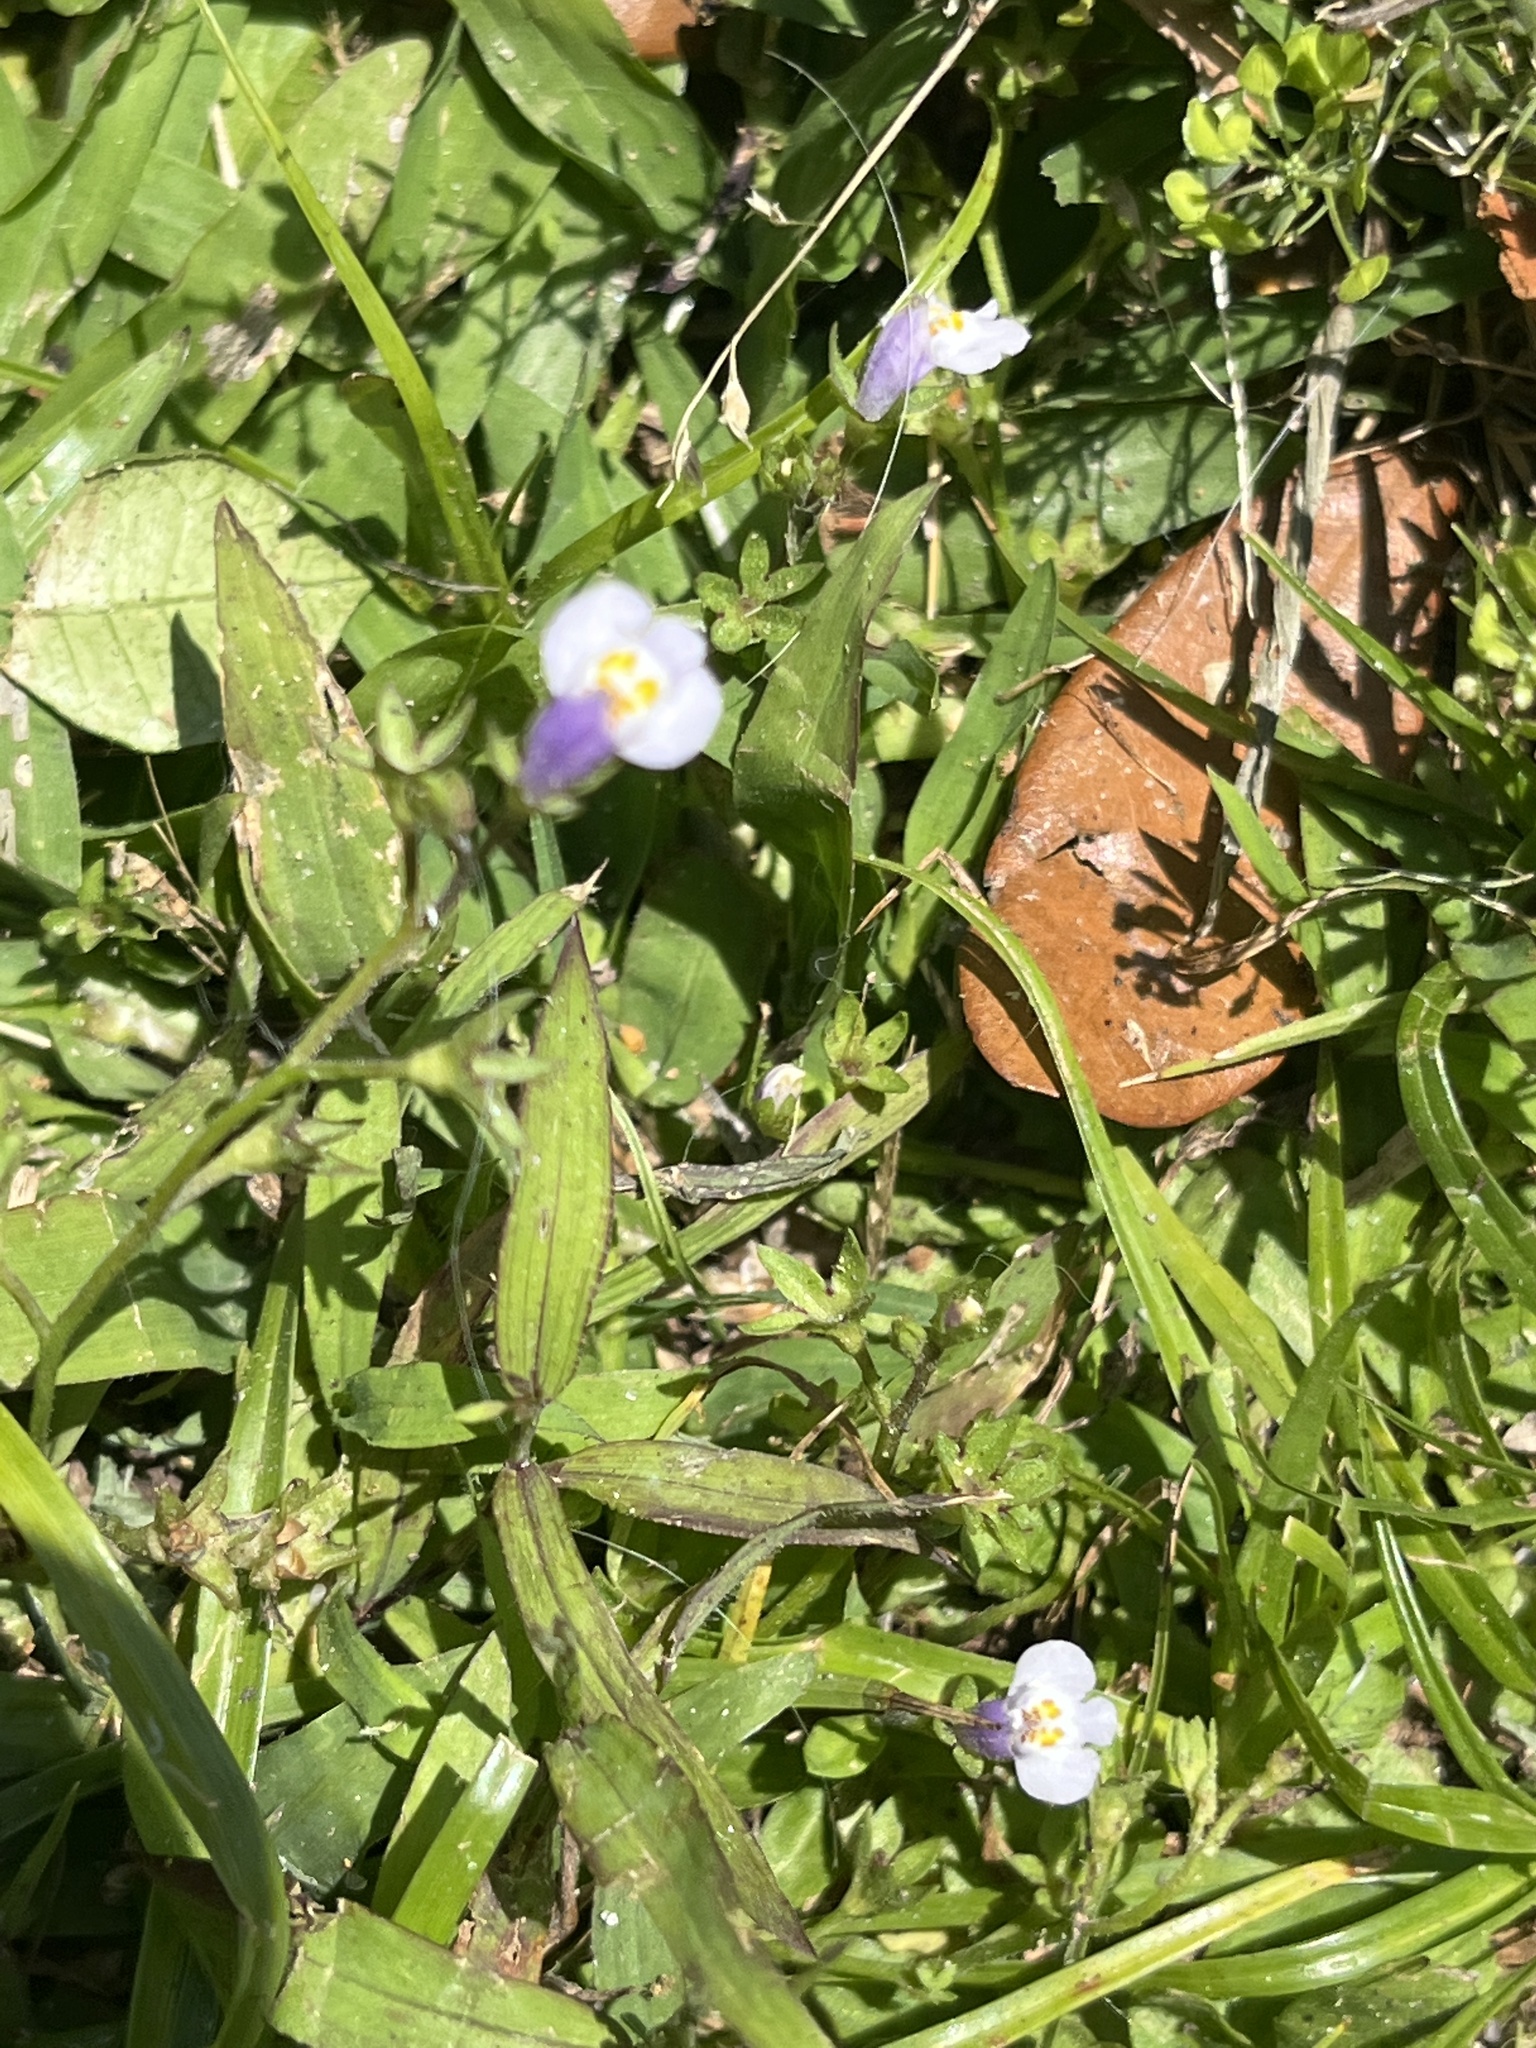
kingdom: Plantae
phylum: Tracheophyta
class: Magnoliopsida
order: Lamiales
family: Mazaceae
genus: Mazus
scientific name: Mazus pumilus
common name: Japanese mazus
